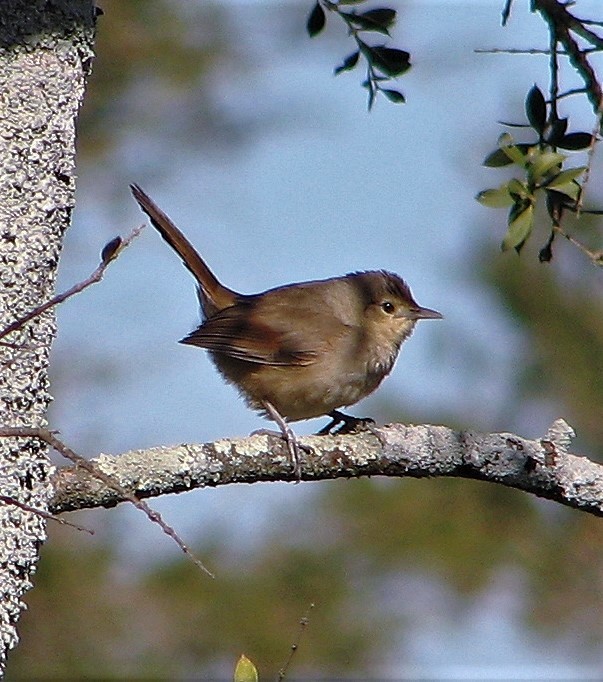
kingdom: Animalia
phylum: Chordata
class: Aves
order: Passeriformes
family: Furnariidae
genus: Phacellodomus
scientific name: Phacellodomus sibilatrix
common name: Little thornbird
